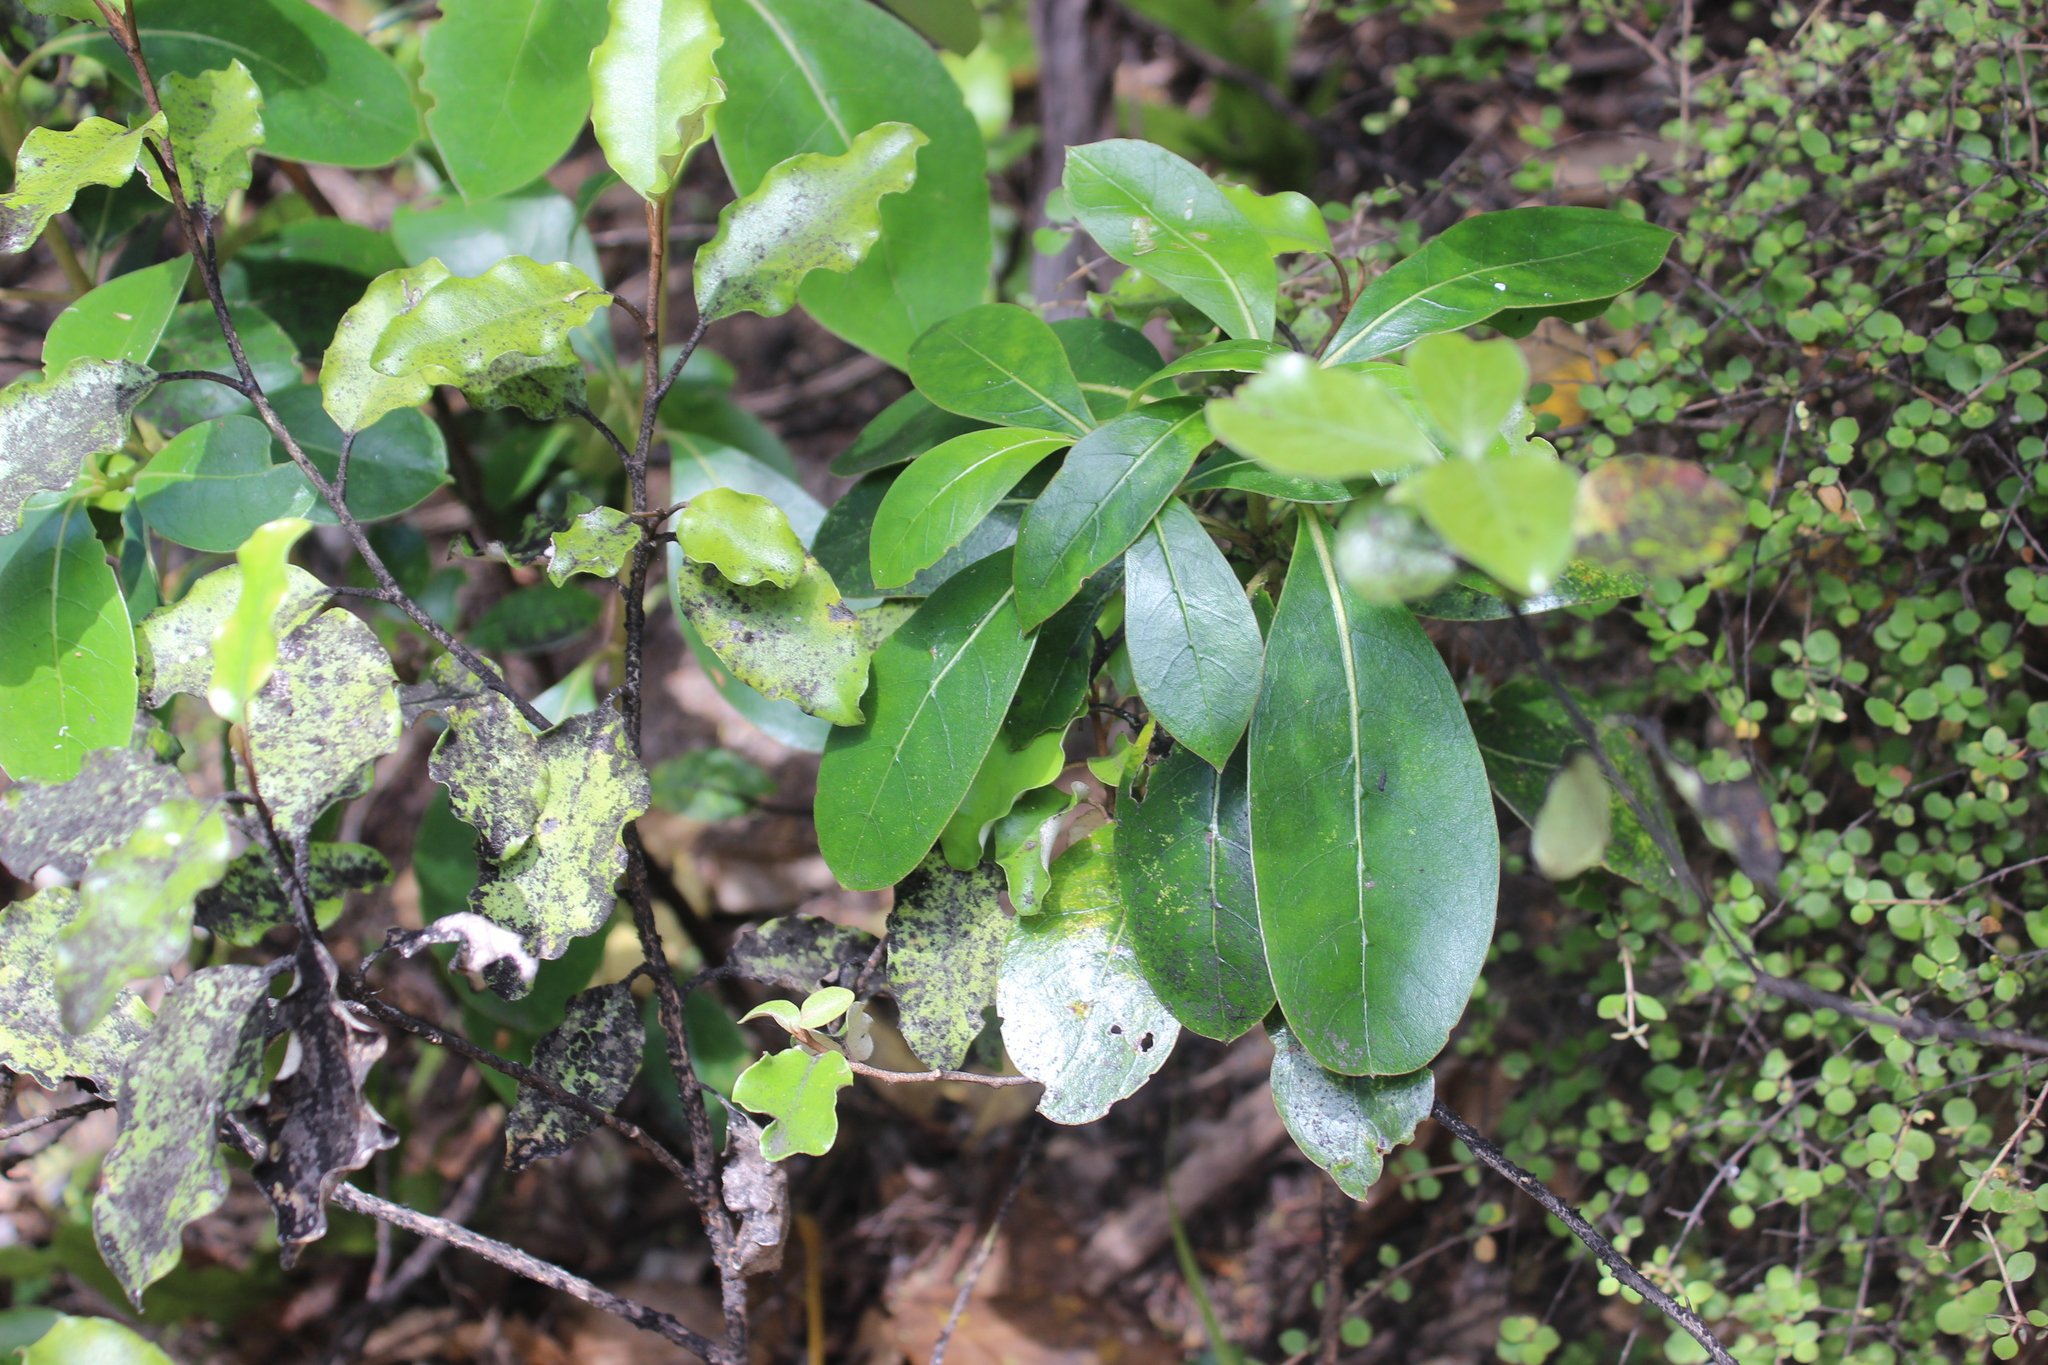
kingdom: Plantae
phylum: Tracheophyta
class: Magnoliopsida
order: Gentianales
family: Rubiaceae
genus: Coprosma
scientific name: Coprosma lucida
